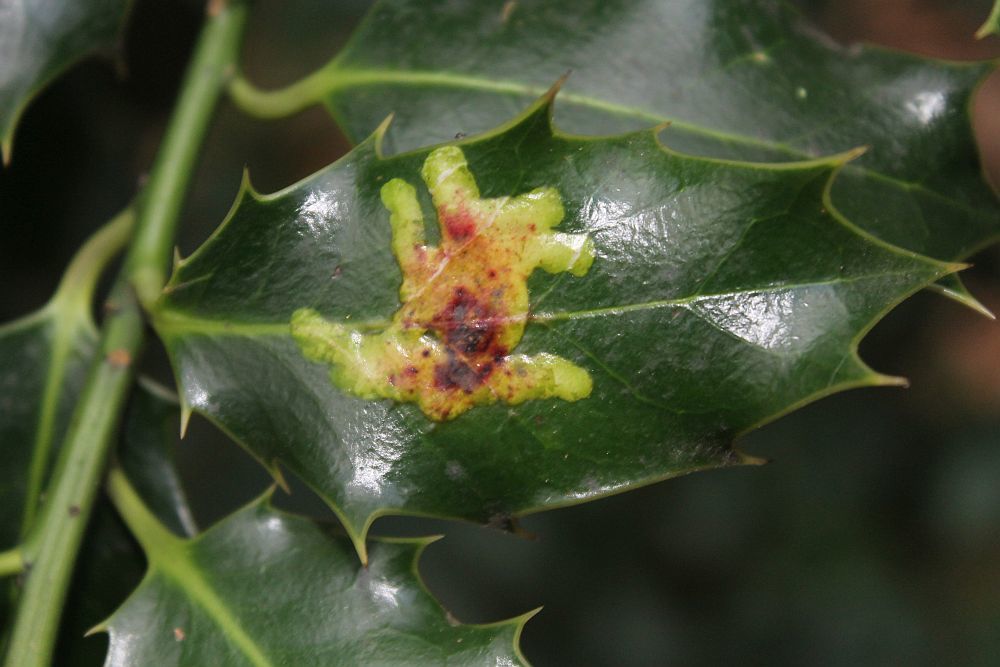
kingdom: Animalia
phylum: Arthropoda
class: Insecta
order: Diptera
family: Agromyzidae
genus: Phytomyza
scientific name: Phytomyza ilicis
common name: Holly leafminer
